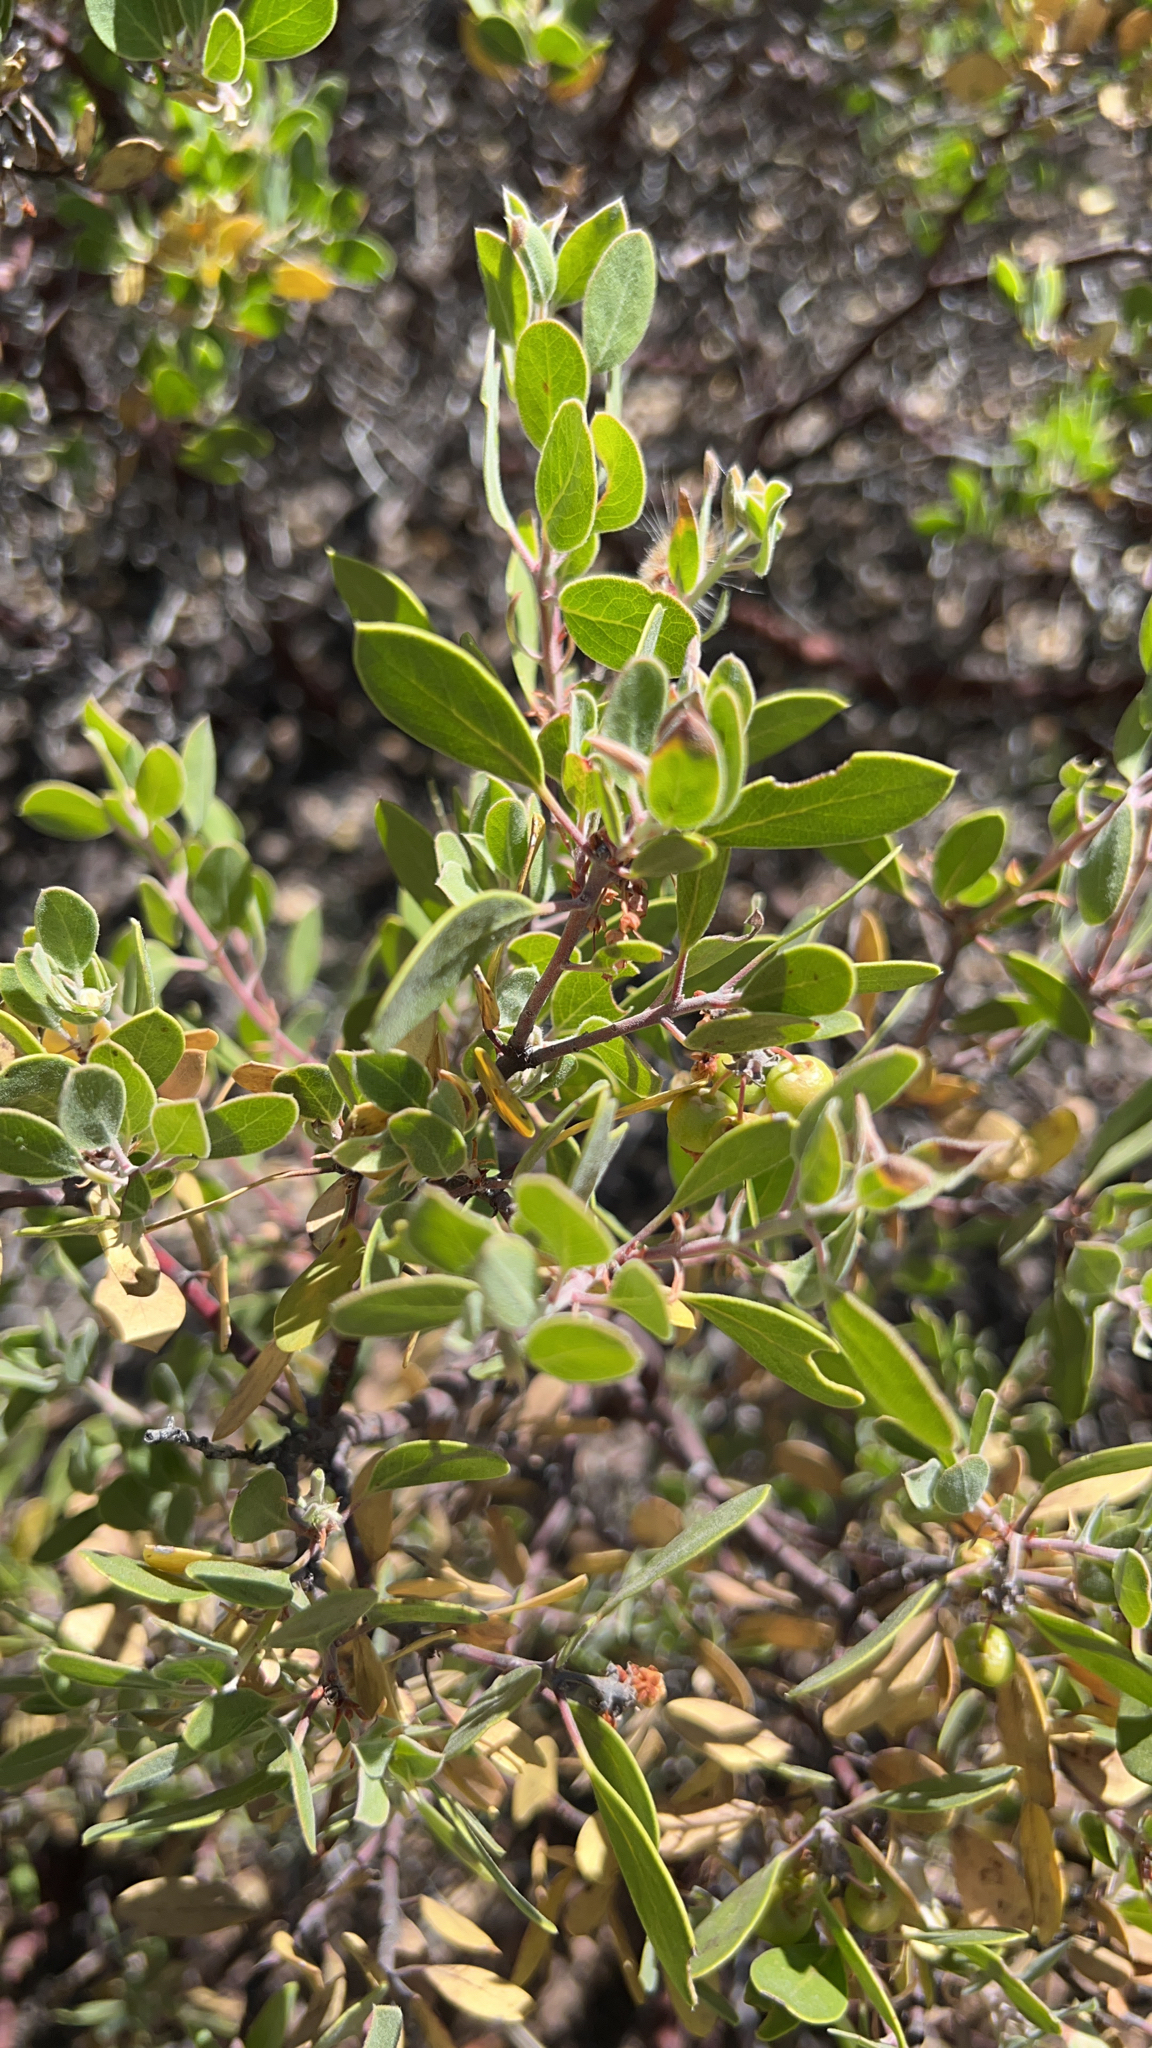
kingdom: Plantae
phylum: Tracheophyta
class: Magnoliopsida
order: Ericales
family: Ericaceae
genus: Arctostaphylos
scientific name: Arctostaphylos pungens
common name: Mexican manzanita
